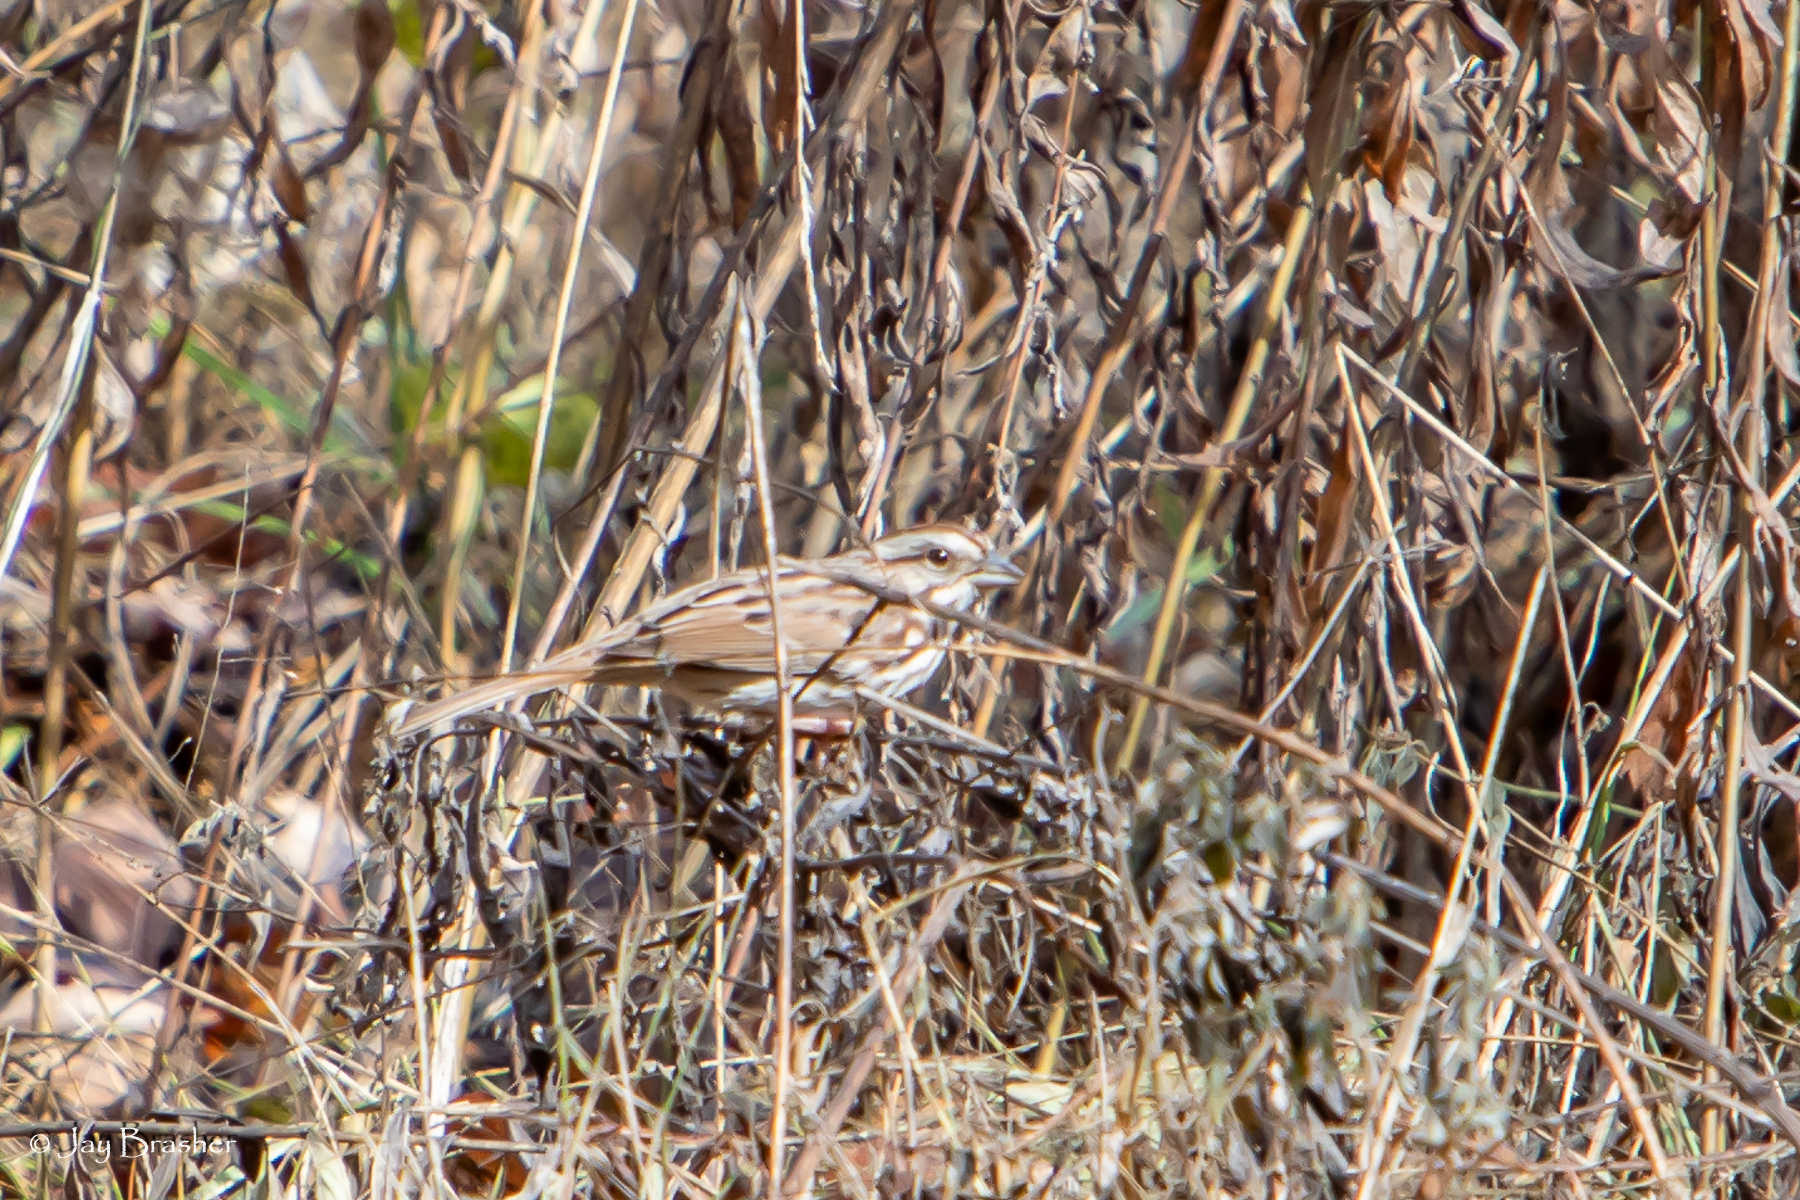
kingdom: Animalia
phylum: Chordata
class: Aves
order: Passeriformes
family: Passerellidae
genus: Melospiza
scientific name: Melospiza melodia
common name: Song sparrow
